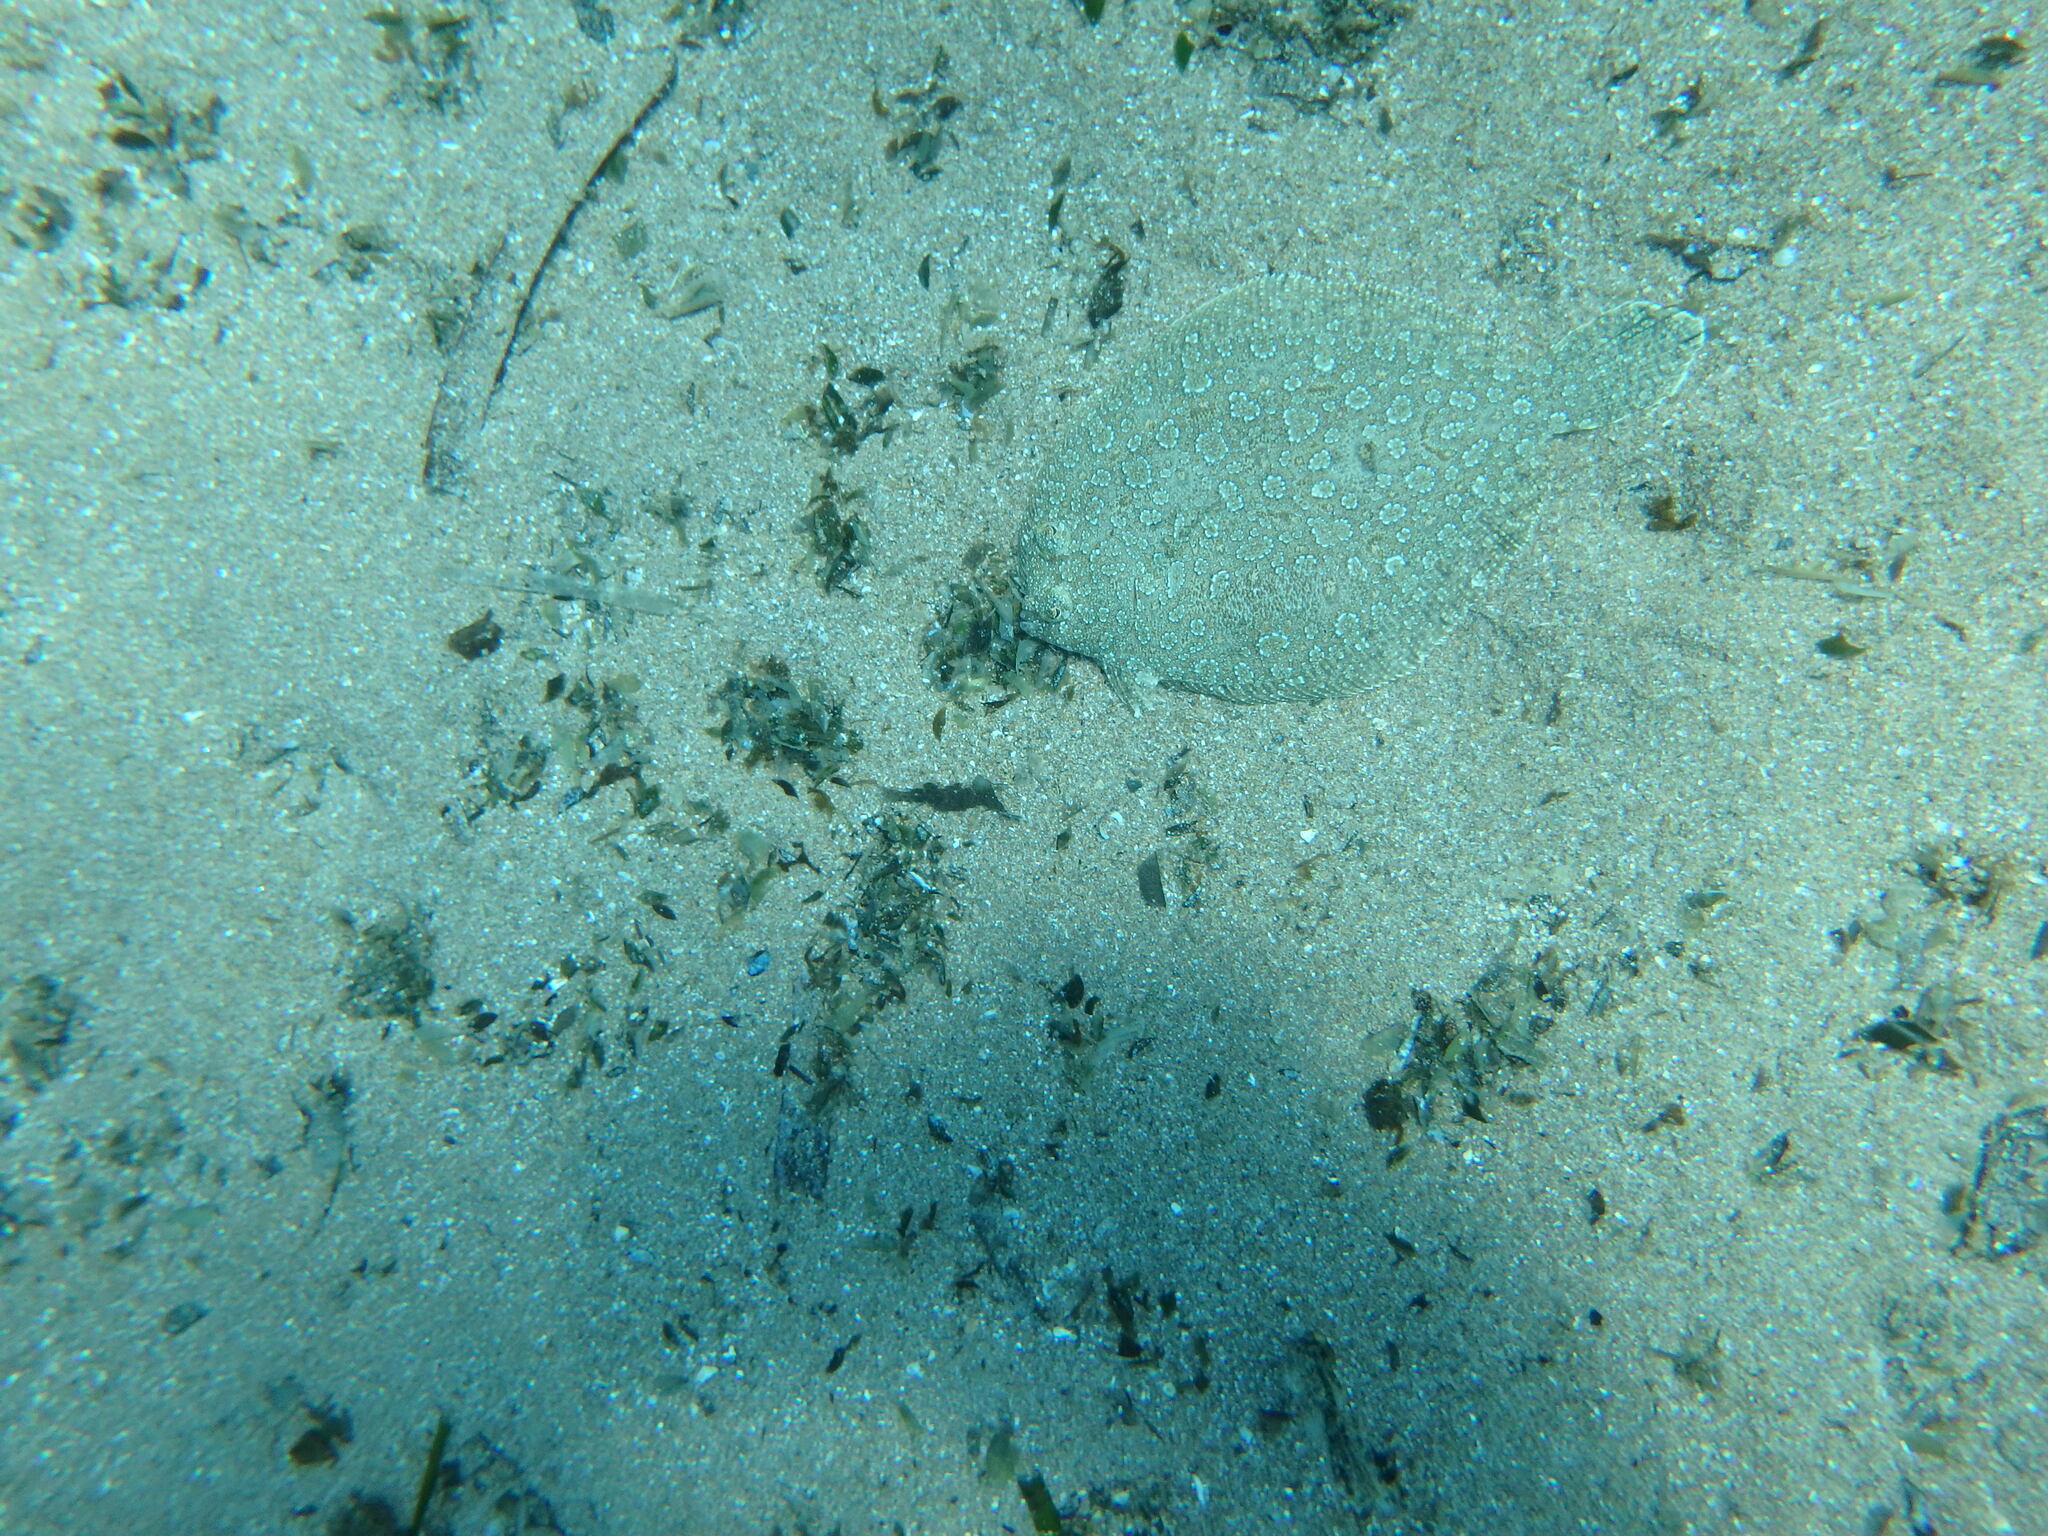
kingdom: Animalia
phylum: Chordata
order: Pleuronectiformes
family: Bothidae
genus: Bothus
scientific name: Bothus podas
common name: Wide-eyed flounder
